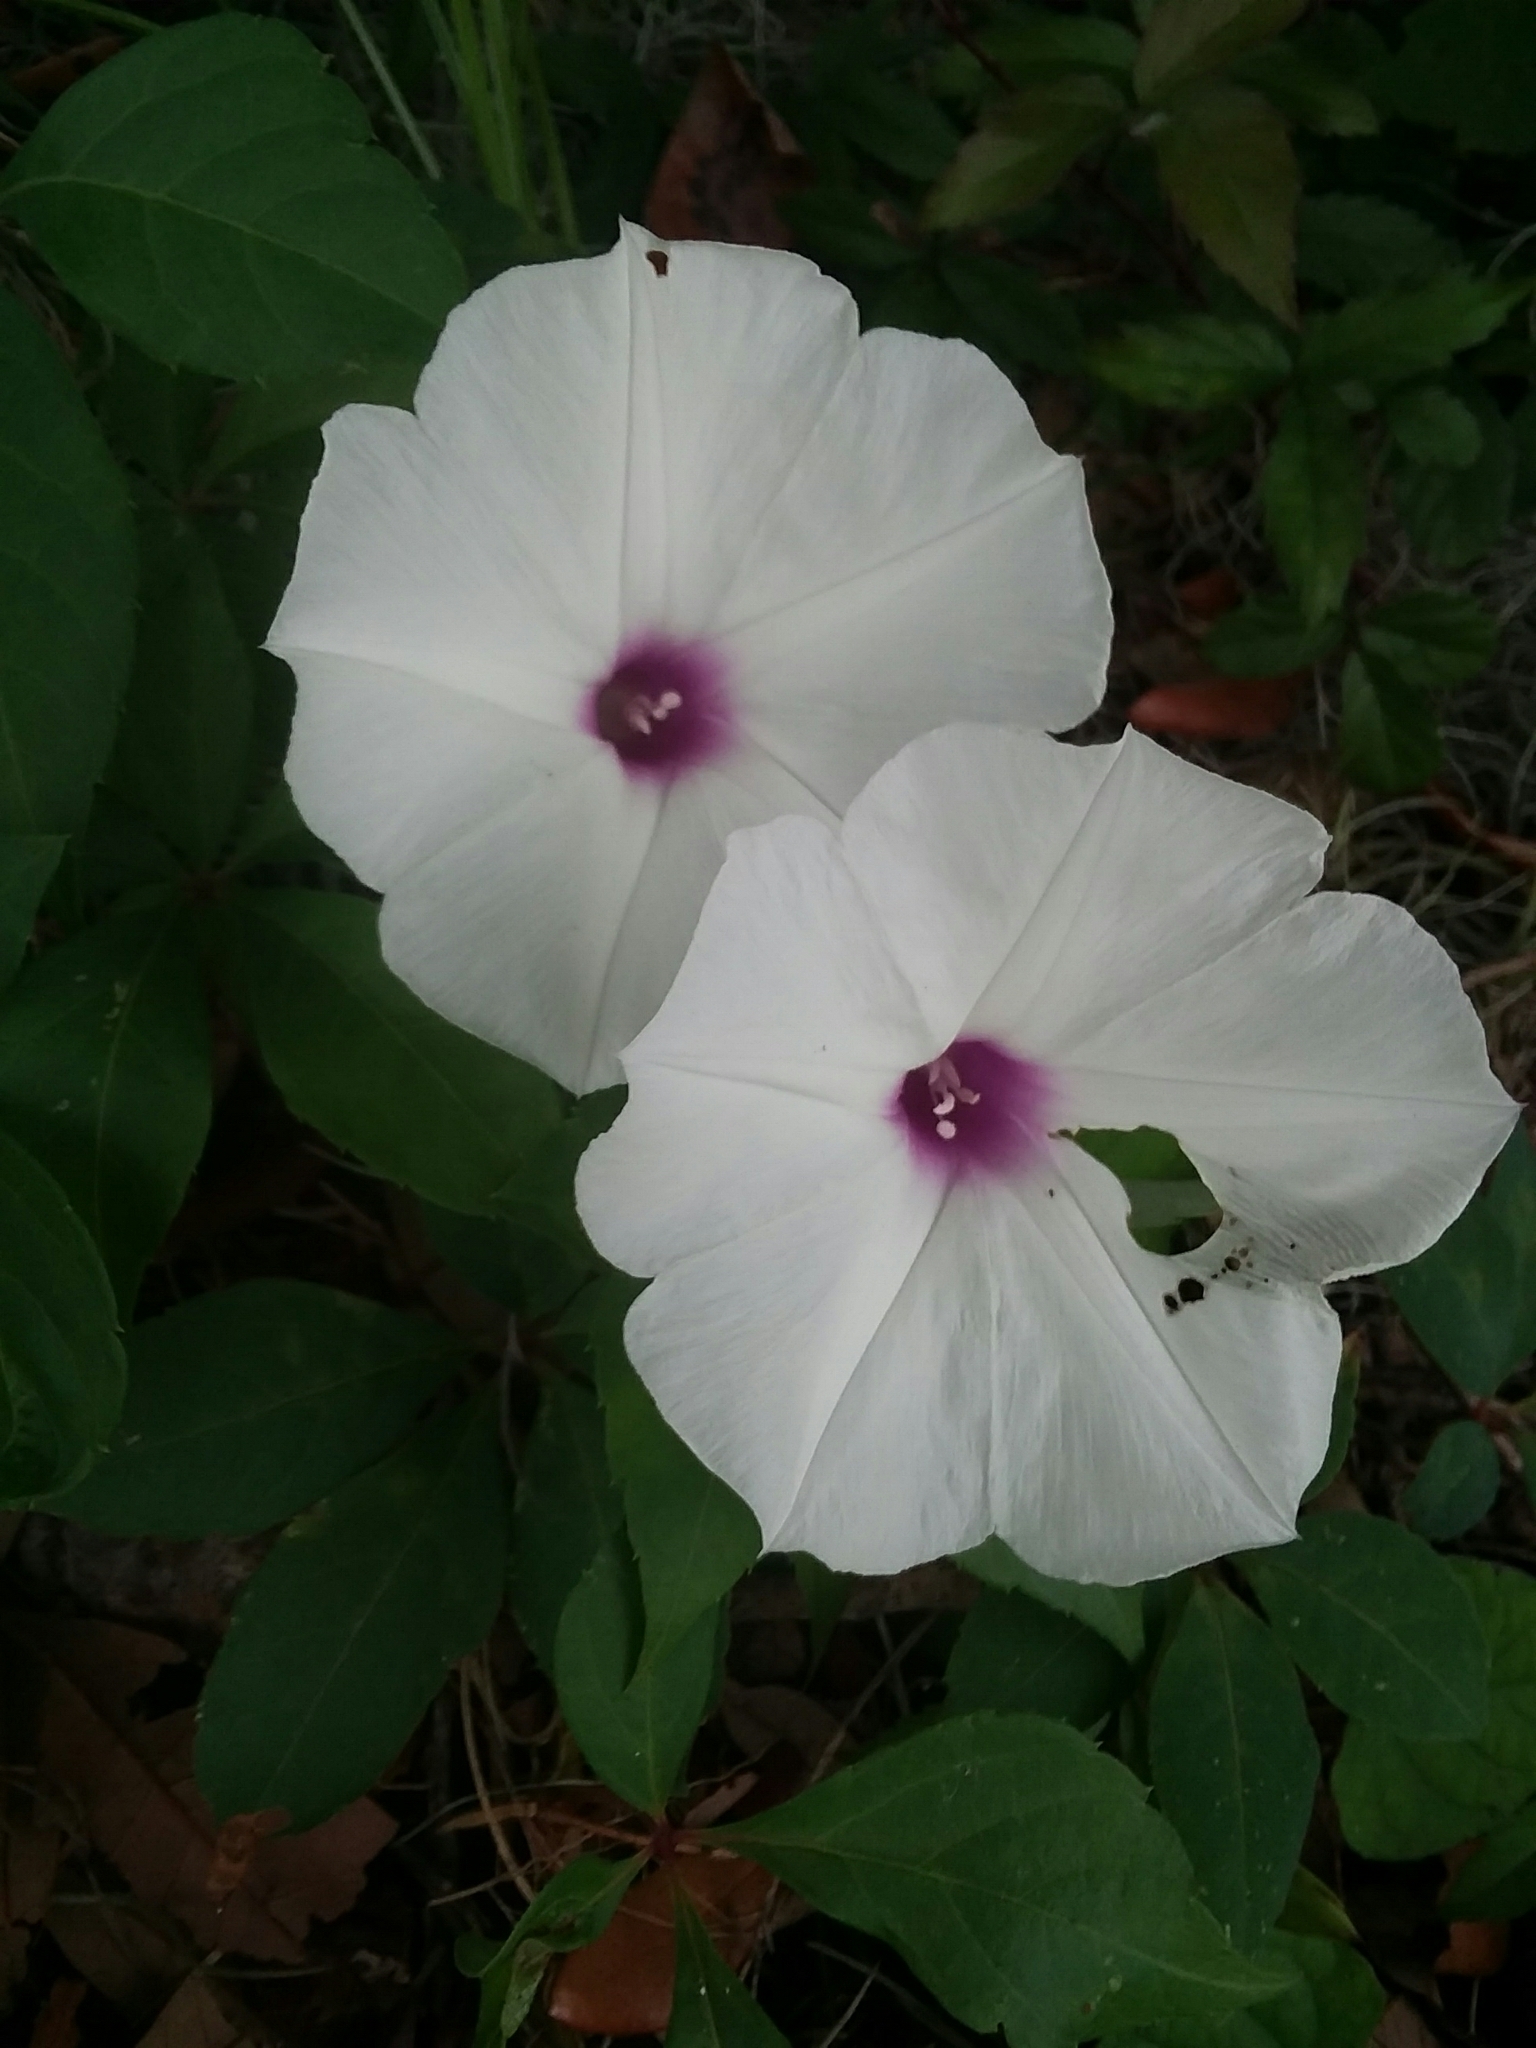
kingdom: Plantae
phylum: Tracheophyta
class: Magnoliopsida
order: Solanales
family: Convolvulaceae
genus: Ipomoea
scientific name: Ipomoea pandurata
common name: Man-of-the-earth
